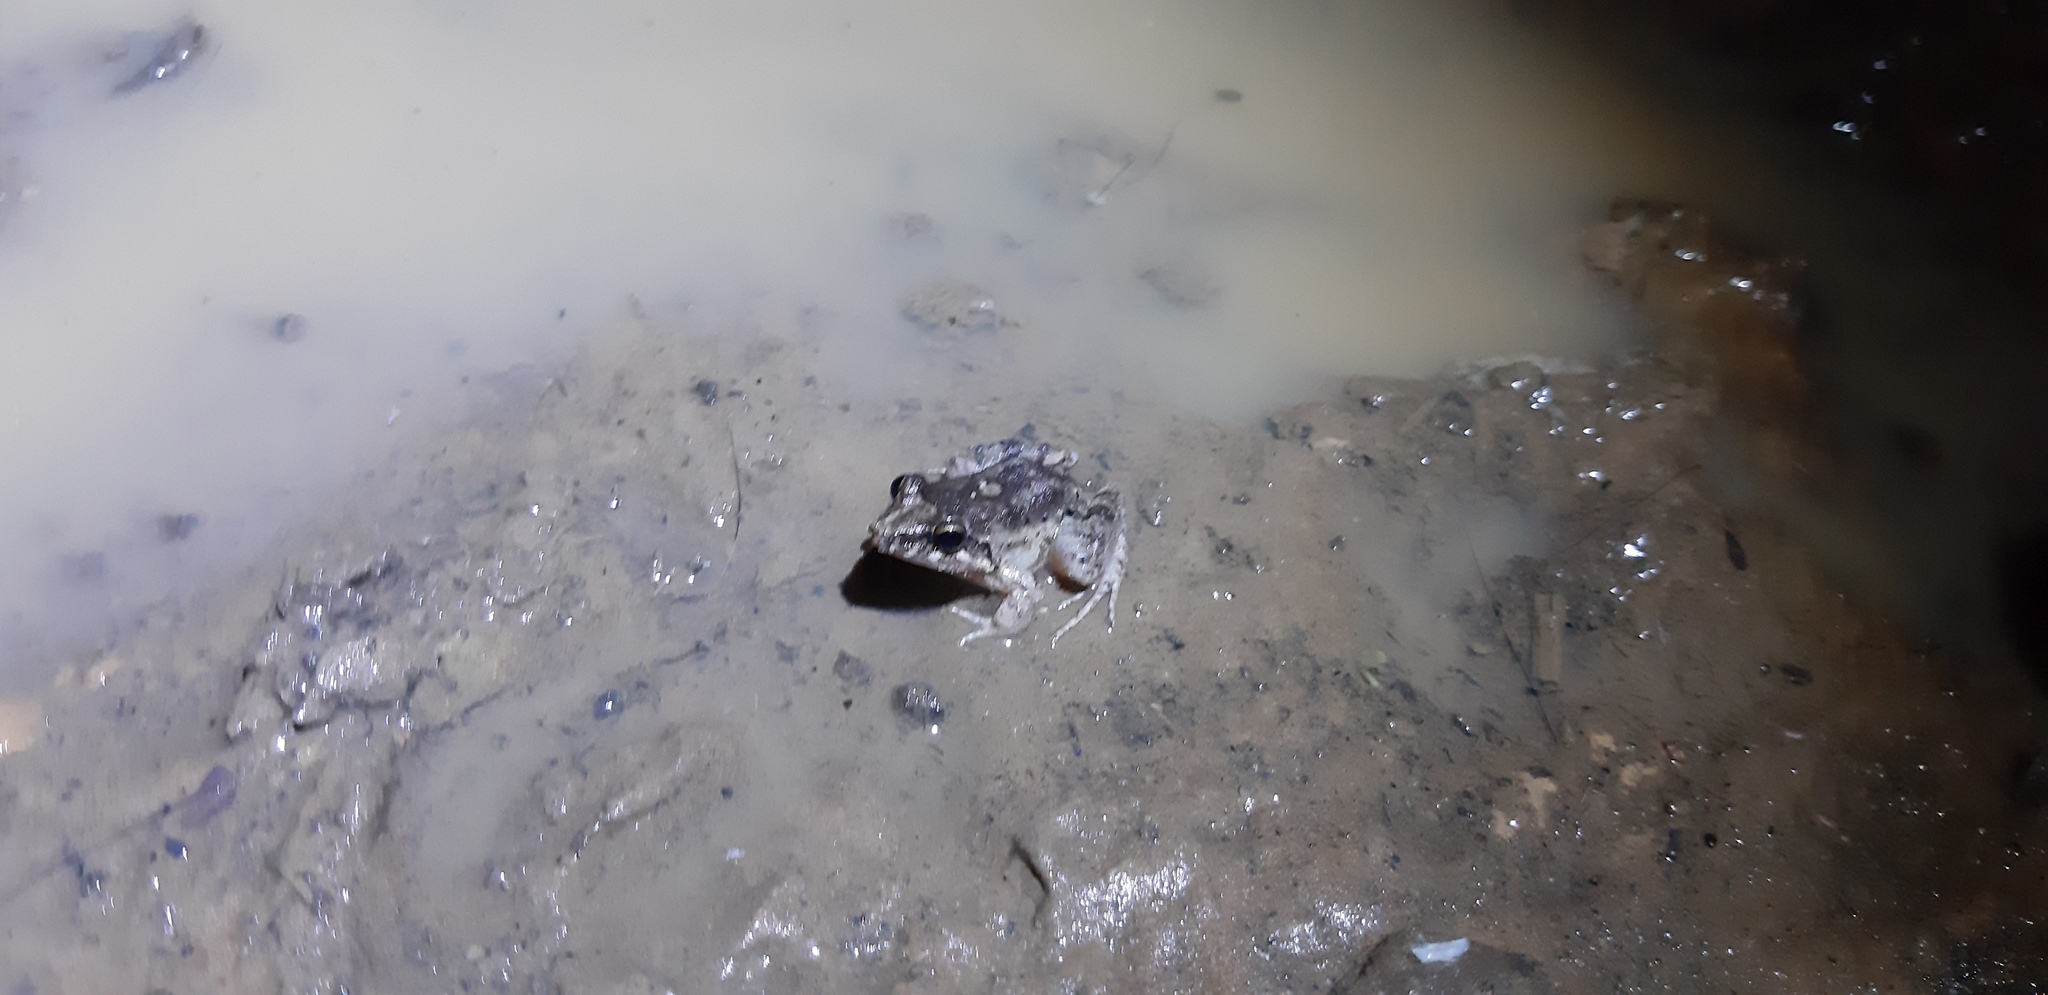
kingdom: Animalia
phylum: Chordata
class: Aves
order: Charadriiformes
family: Charadriidae
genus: Vanellus
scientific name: Vanellus chilensis
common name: Southern lapwing
